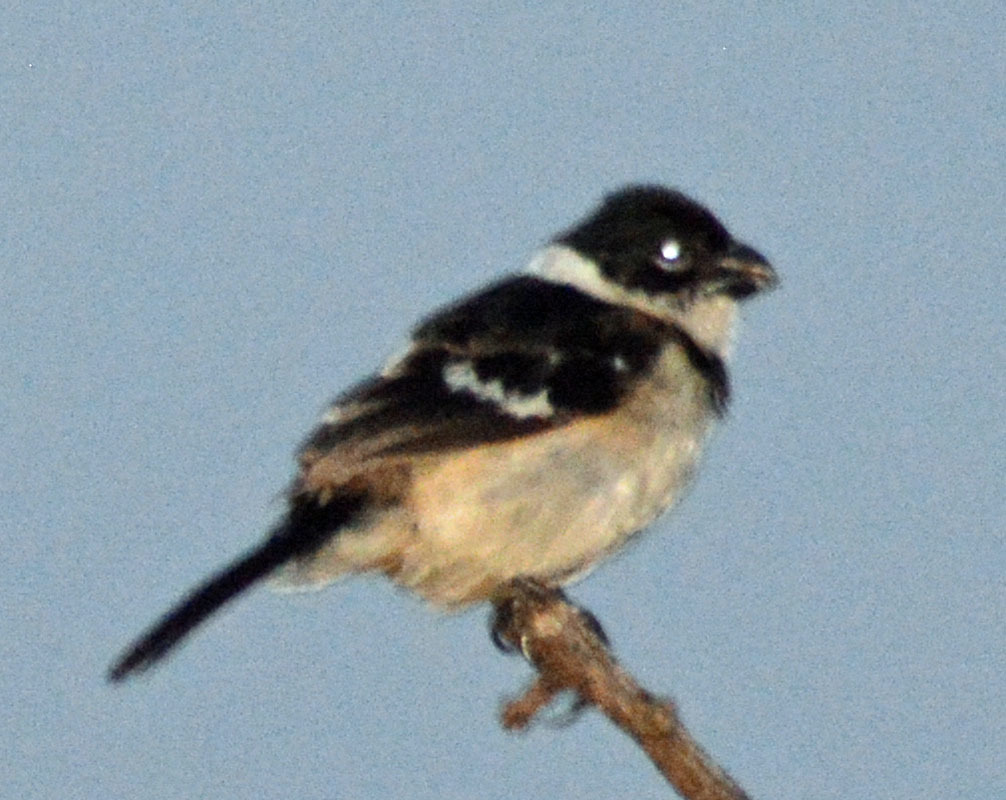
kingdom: Animalia
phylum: Chordata
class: Aves
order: Passeriformes
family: Thraupidae
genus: Sporophila
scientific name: Sporophila morelleti
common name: Morelet's seedeater
